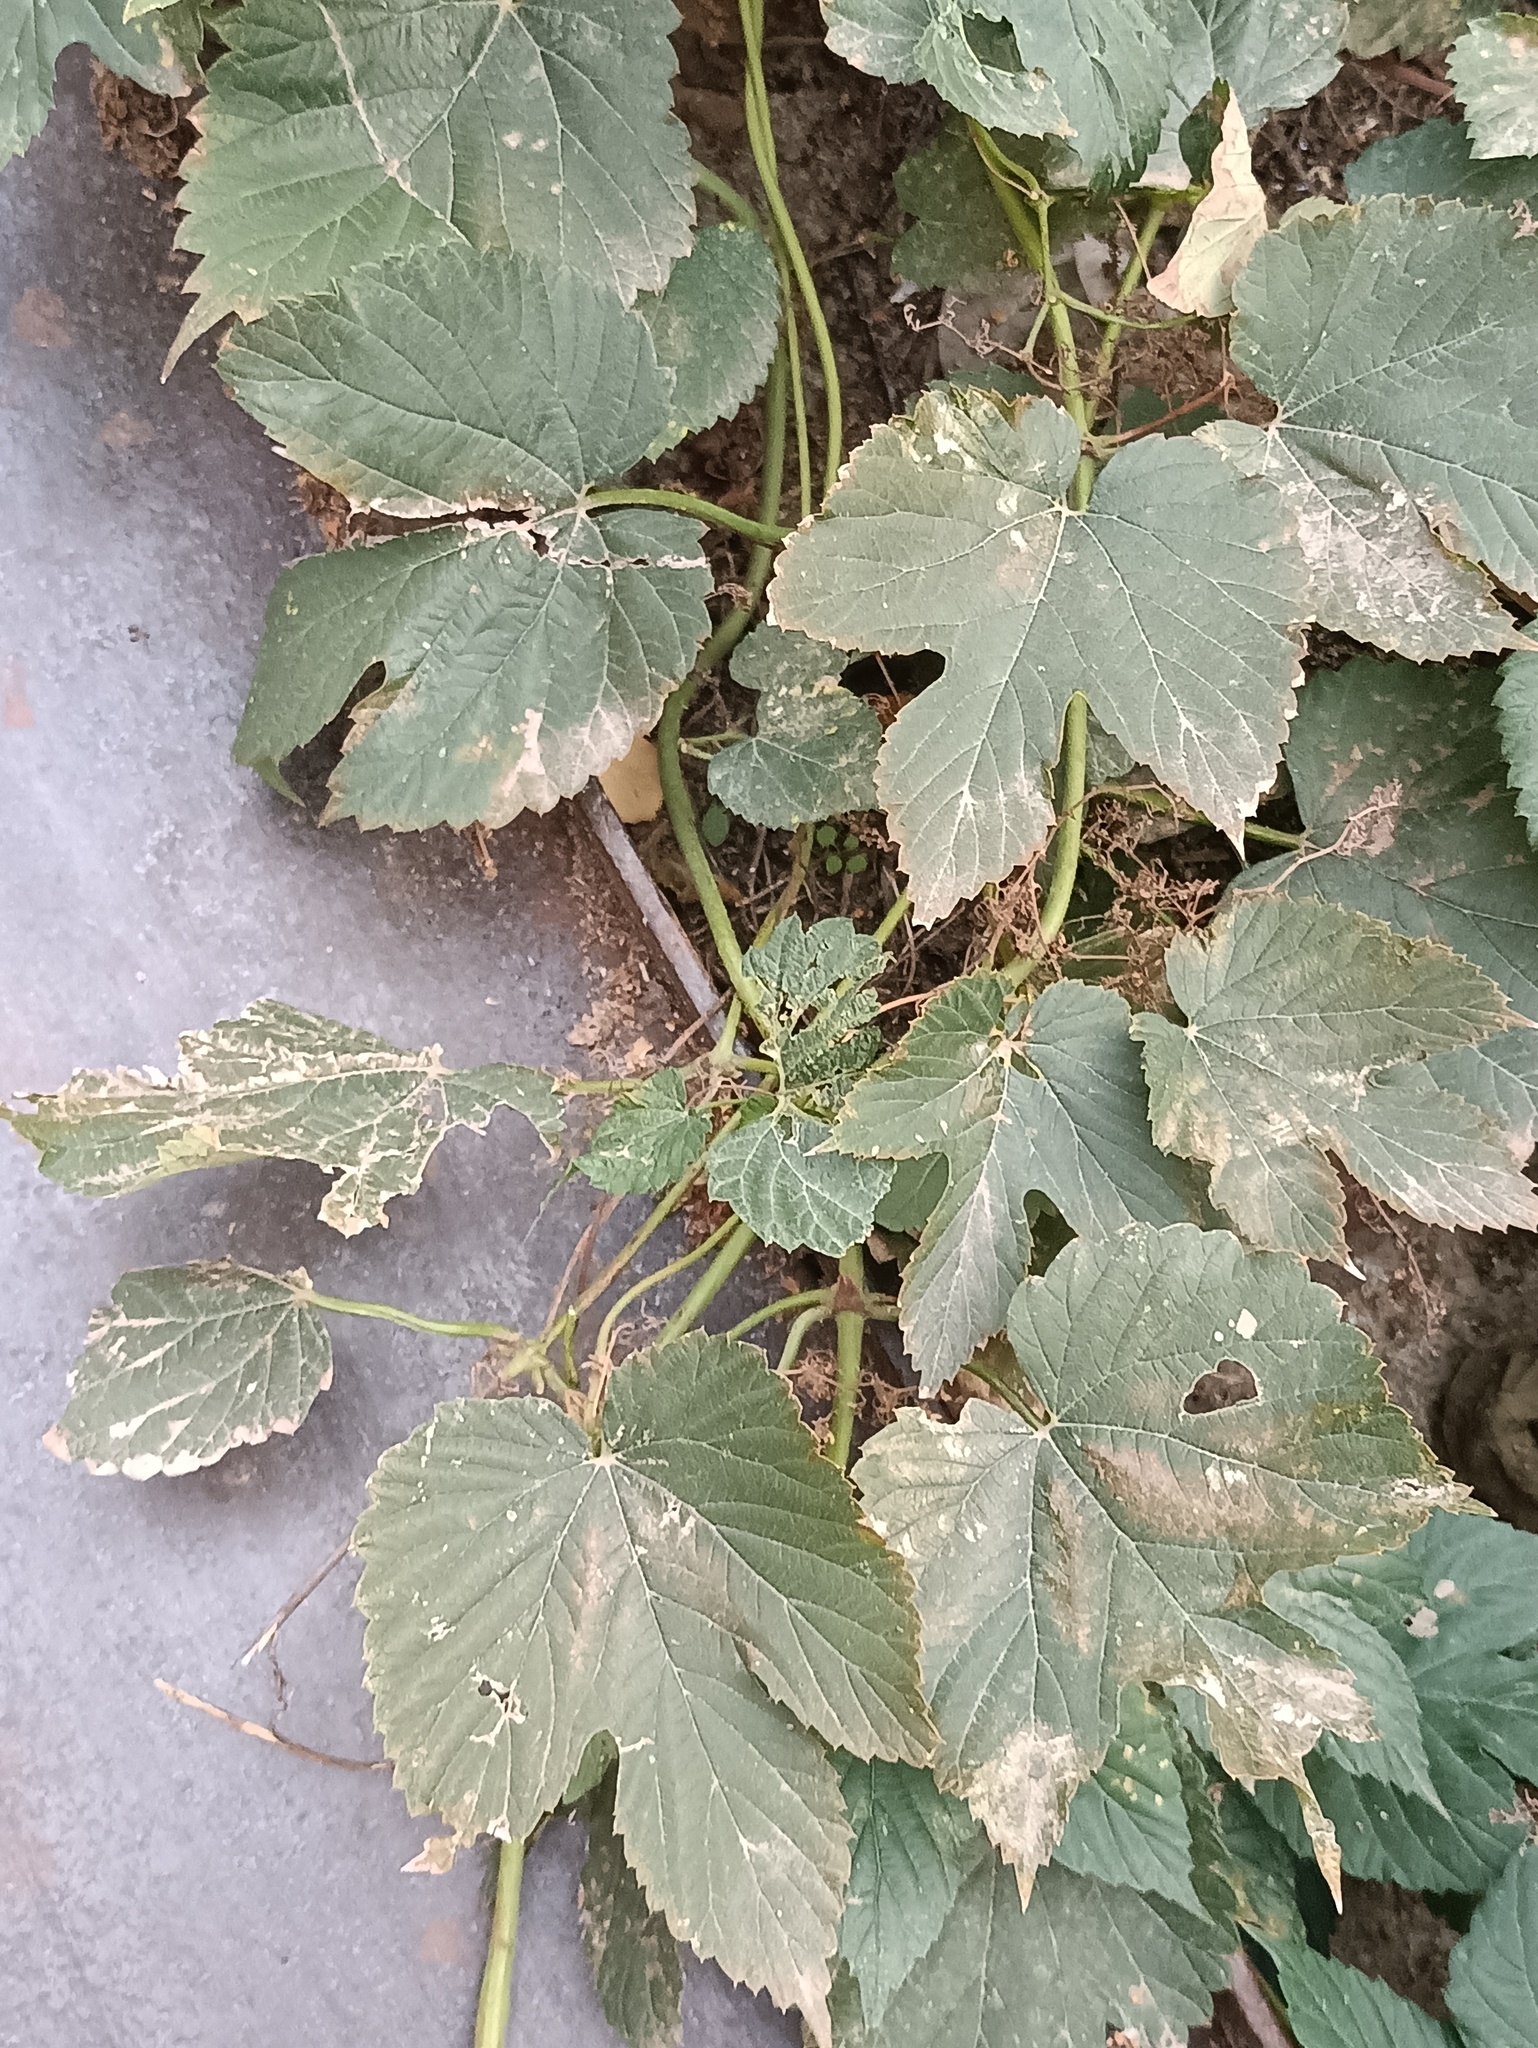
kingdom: Plantae
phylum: Tracheophyta
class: Magnoliopsida
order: Rosales
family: Cannabaceae
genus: Humulus
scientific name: Humulus lupulus
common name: Hop
